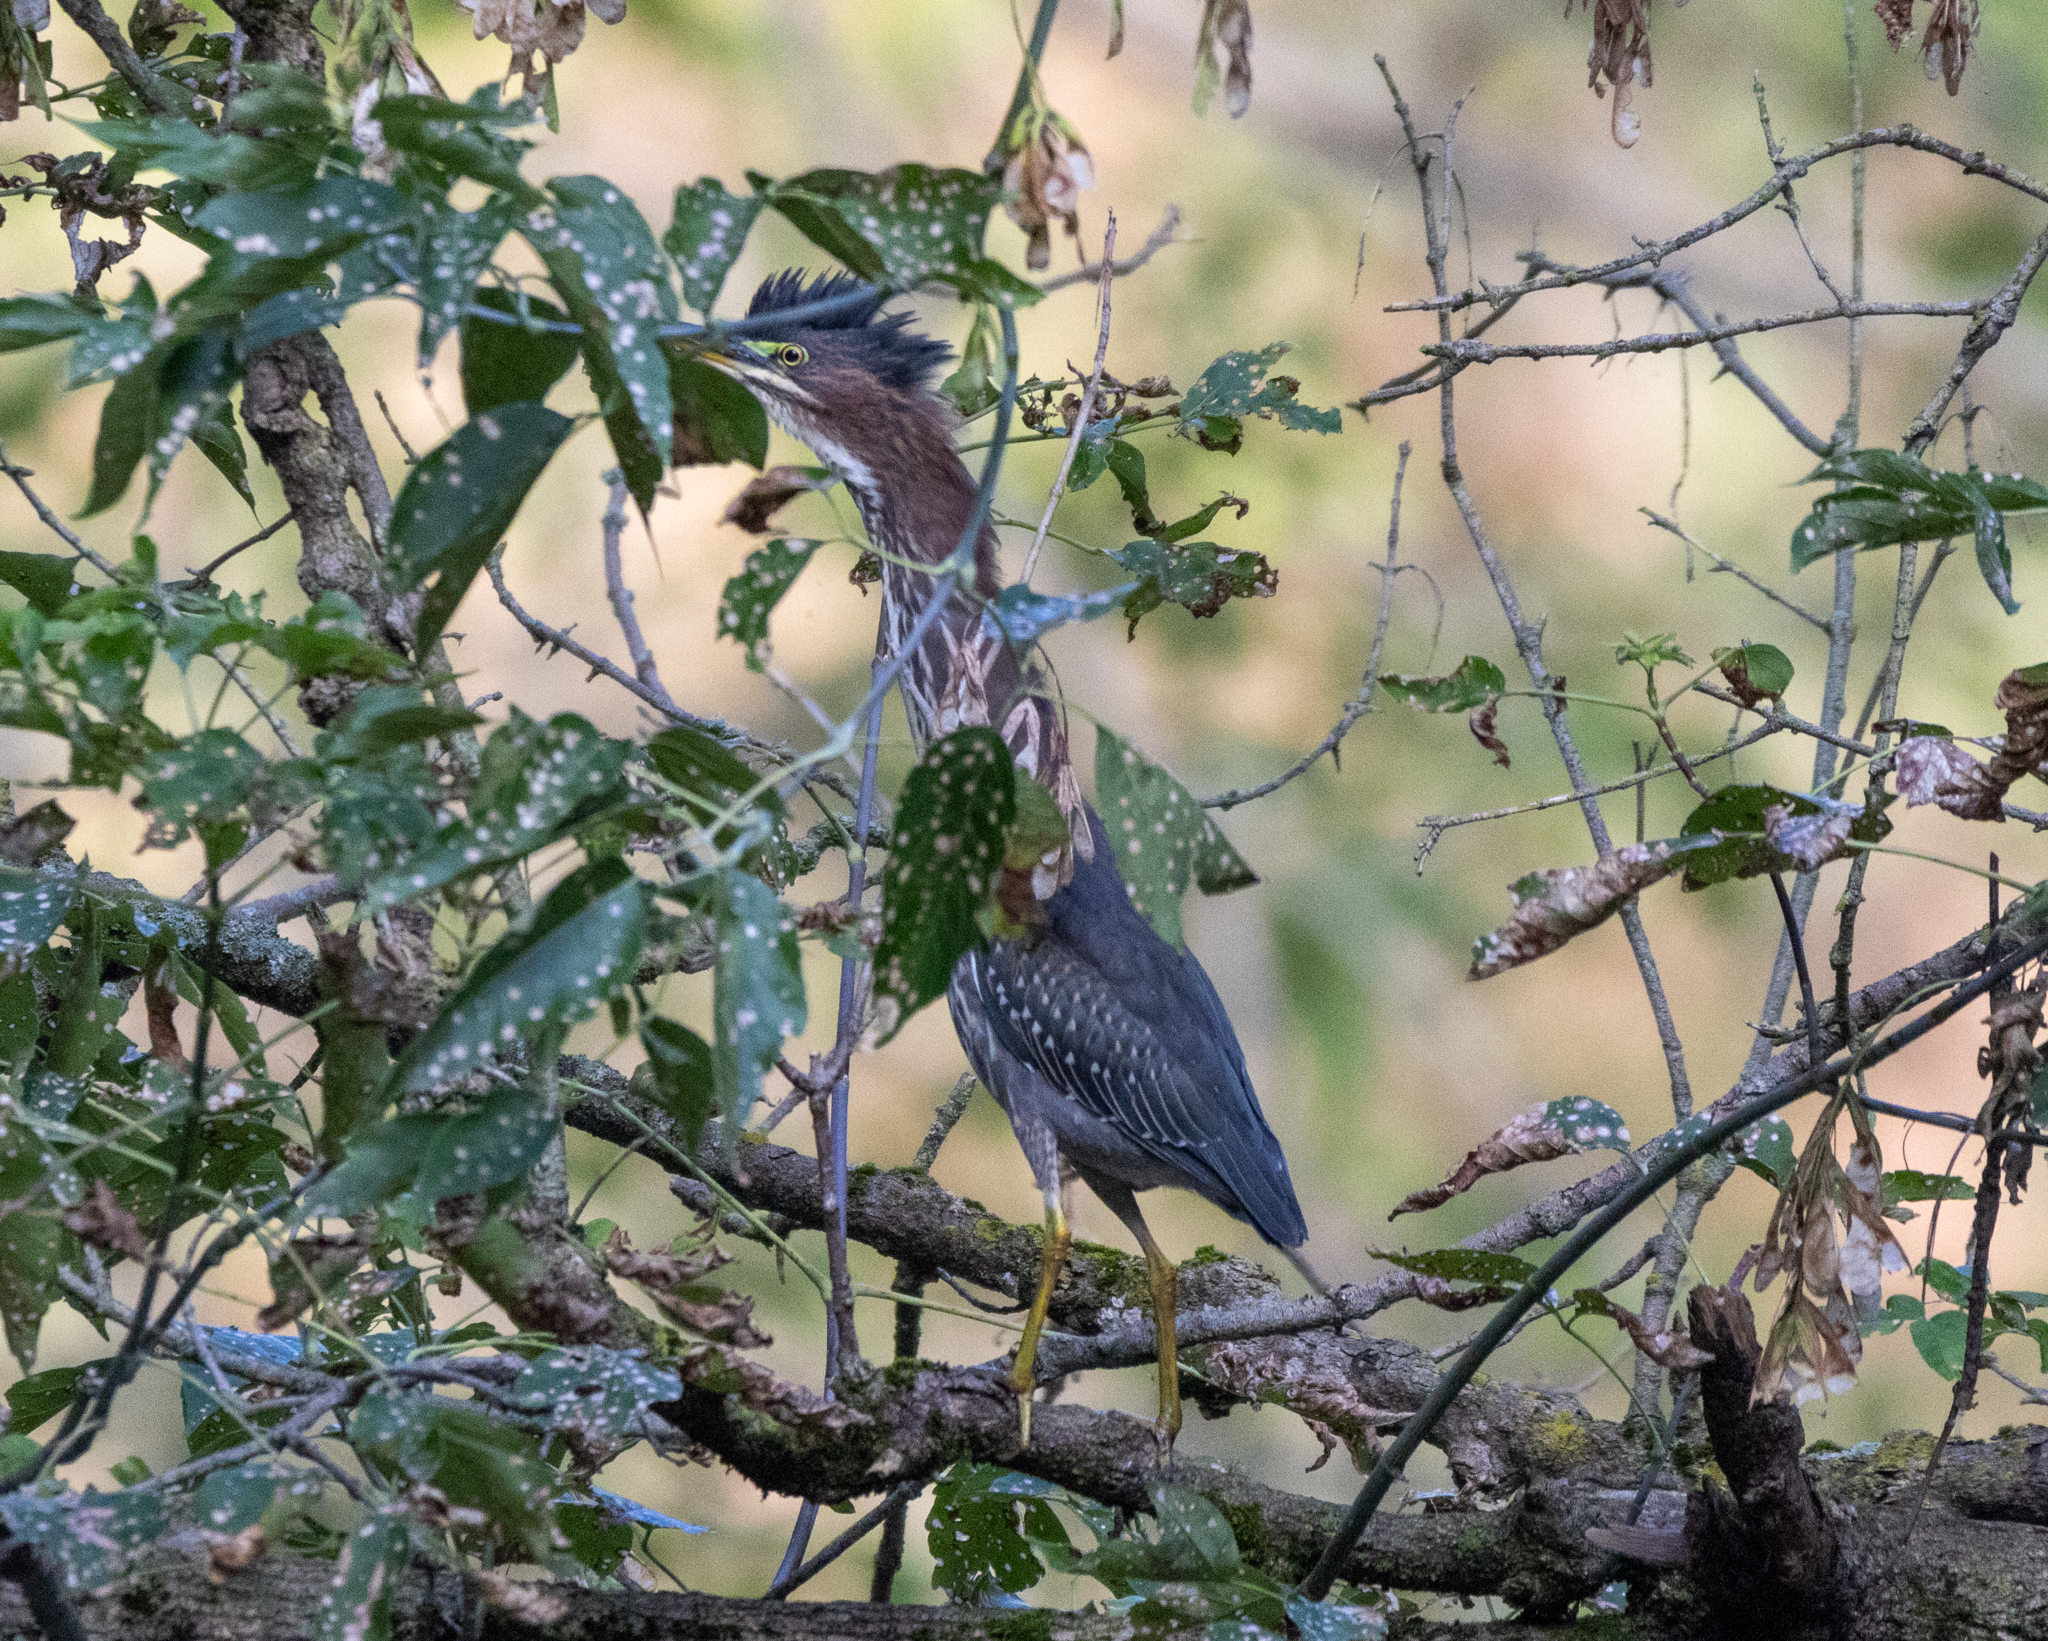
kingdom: Animalia
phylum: Chordata
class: Aves
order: Pelecaniformes
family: Ardeidae
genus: Butorides
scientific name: Butorides virescens
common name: Green heron
